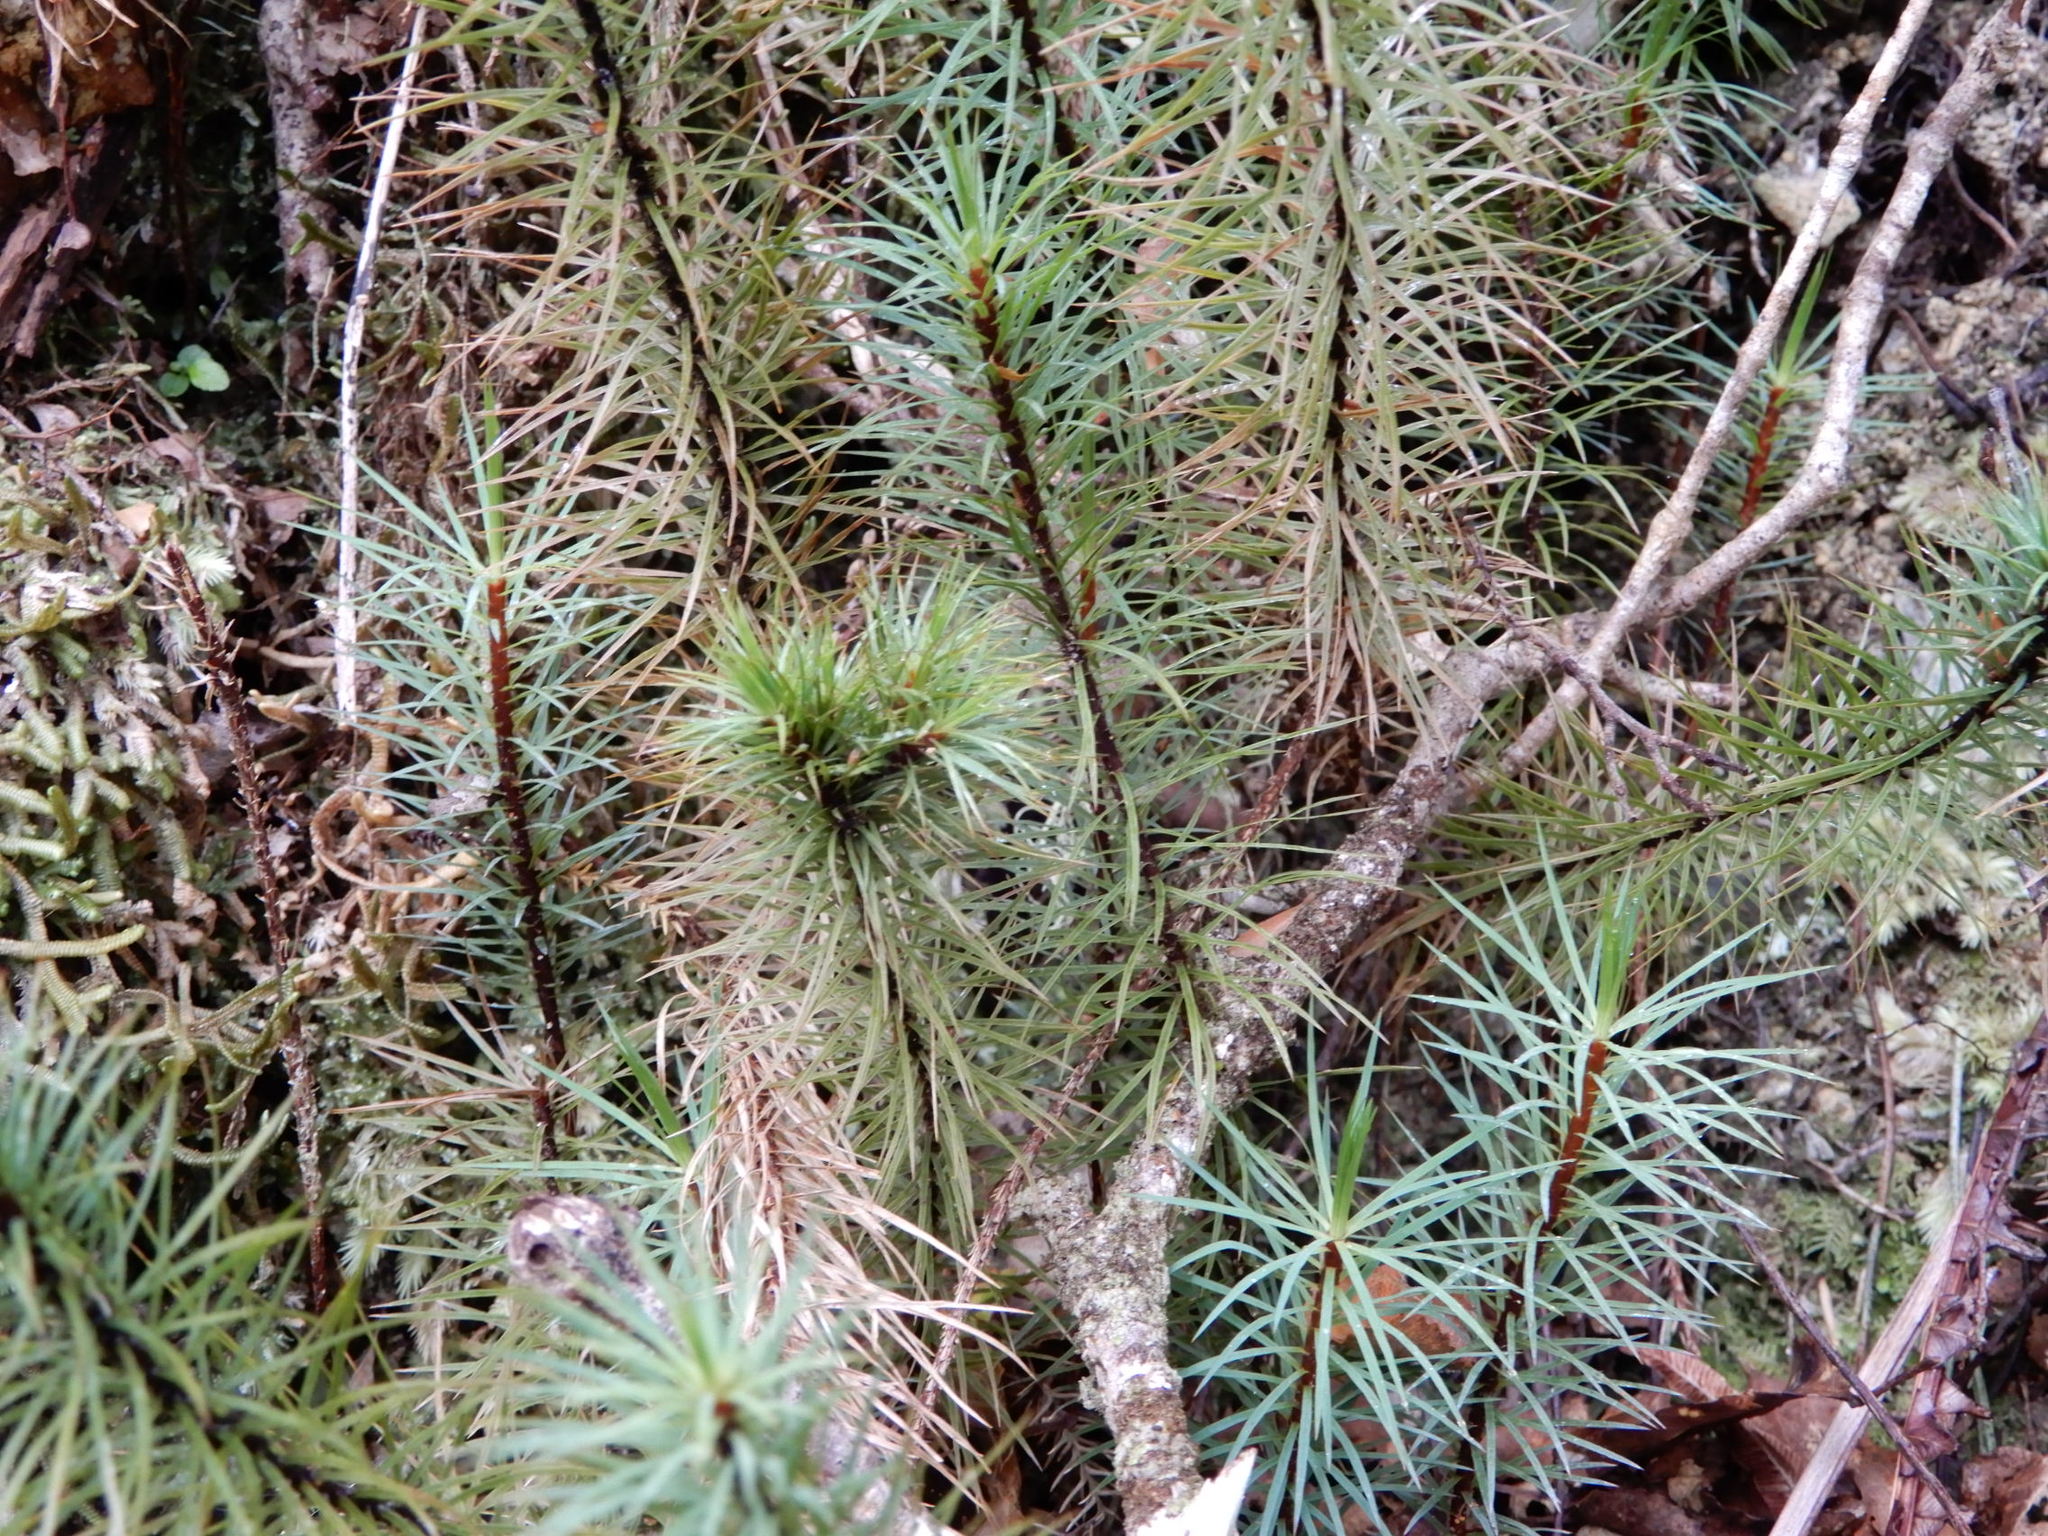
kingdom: Plantae
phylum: Bryophyta
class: Polytrichopsida
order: Polytrichales
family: Polytrichaceae
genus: Dawsonia
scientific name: Dawsonia superba
